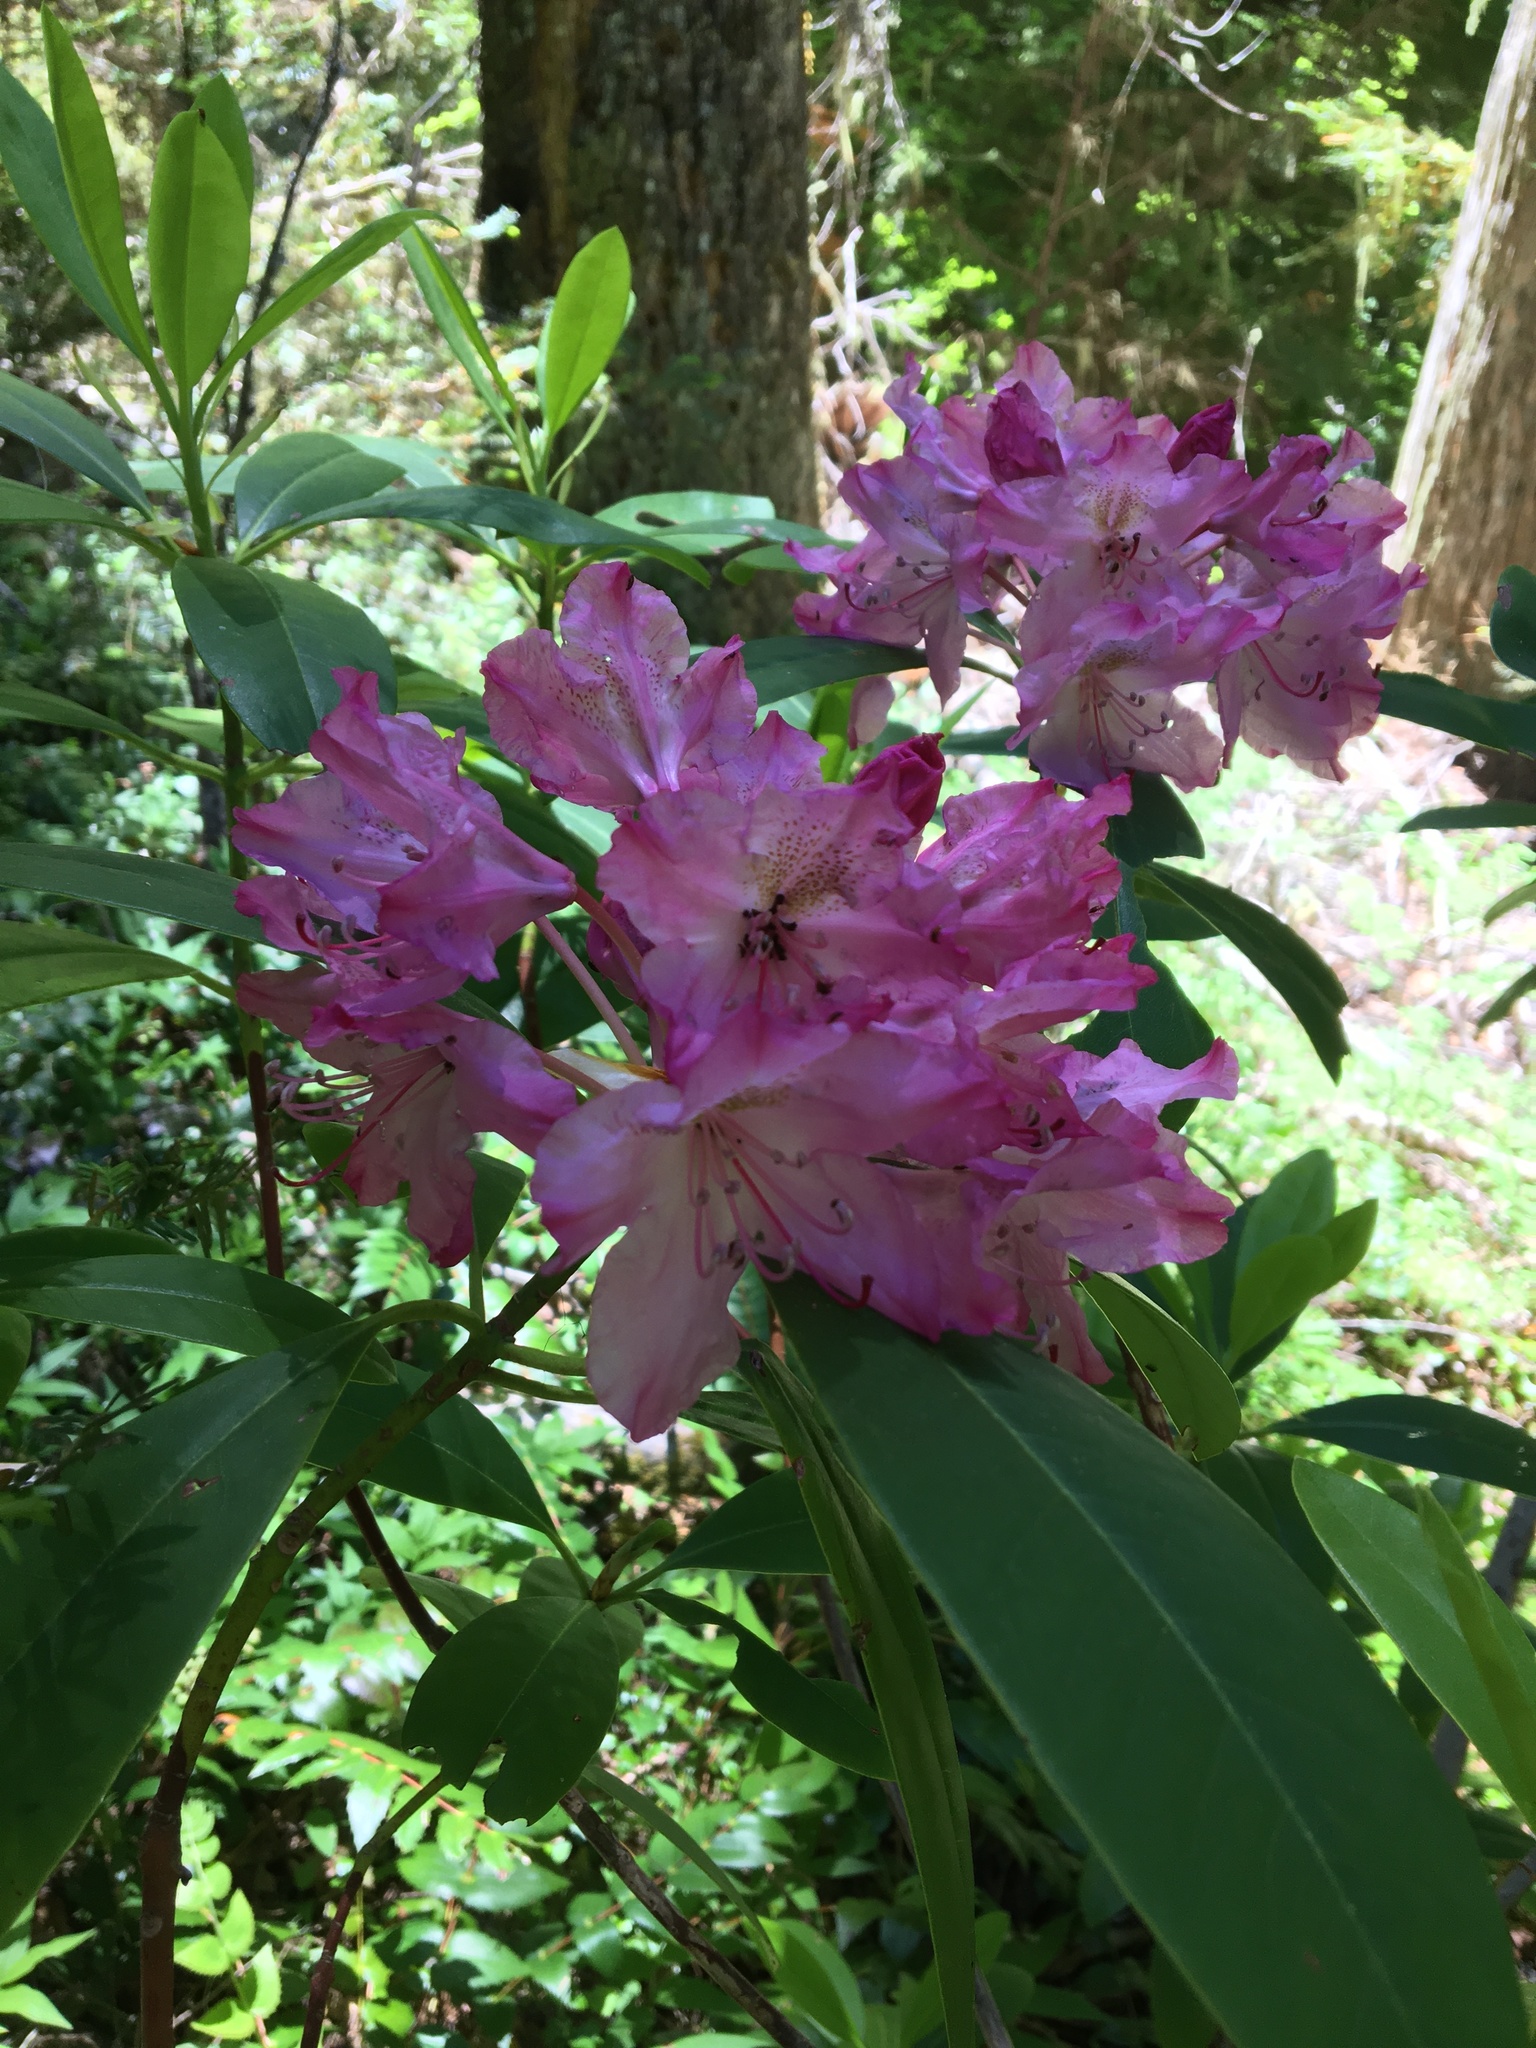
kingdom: Plantae
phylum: Tracheophyta
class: Magnoliopsida
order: Ericales
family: Ericaceae
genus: Rhododendron
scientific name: Rhododendron macrophyllum
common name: California rose bay
